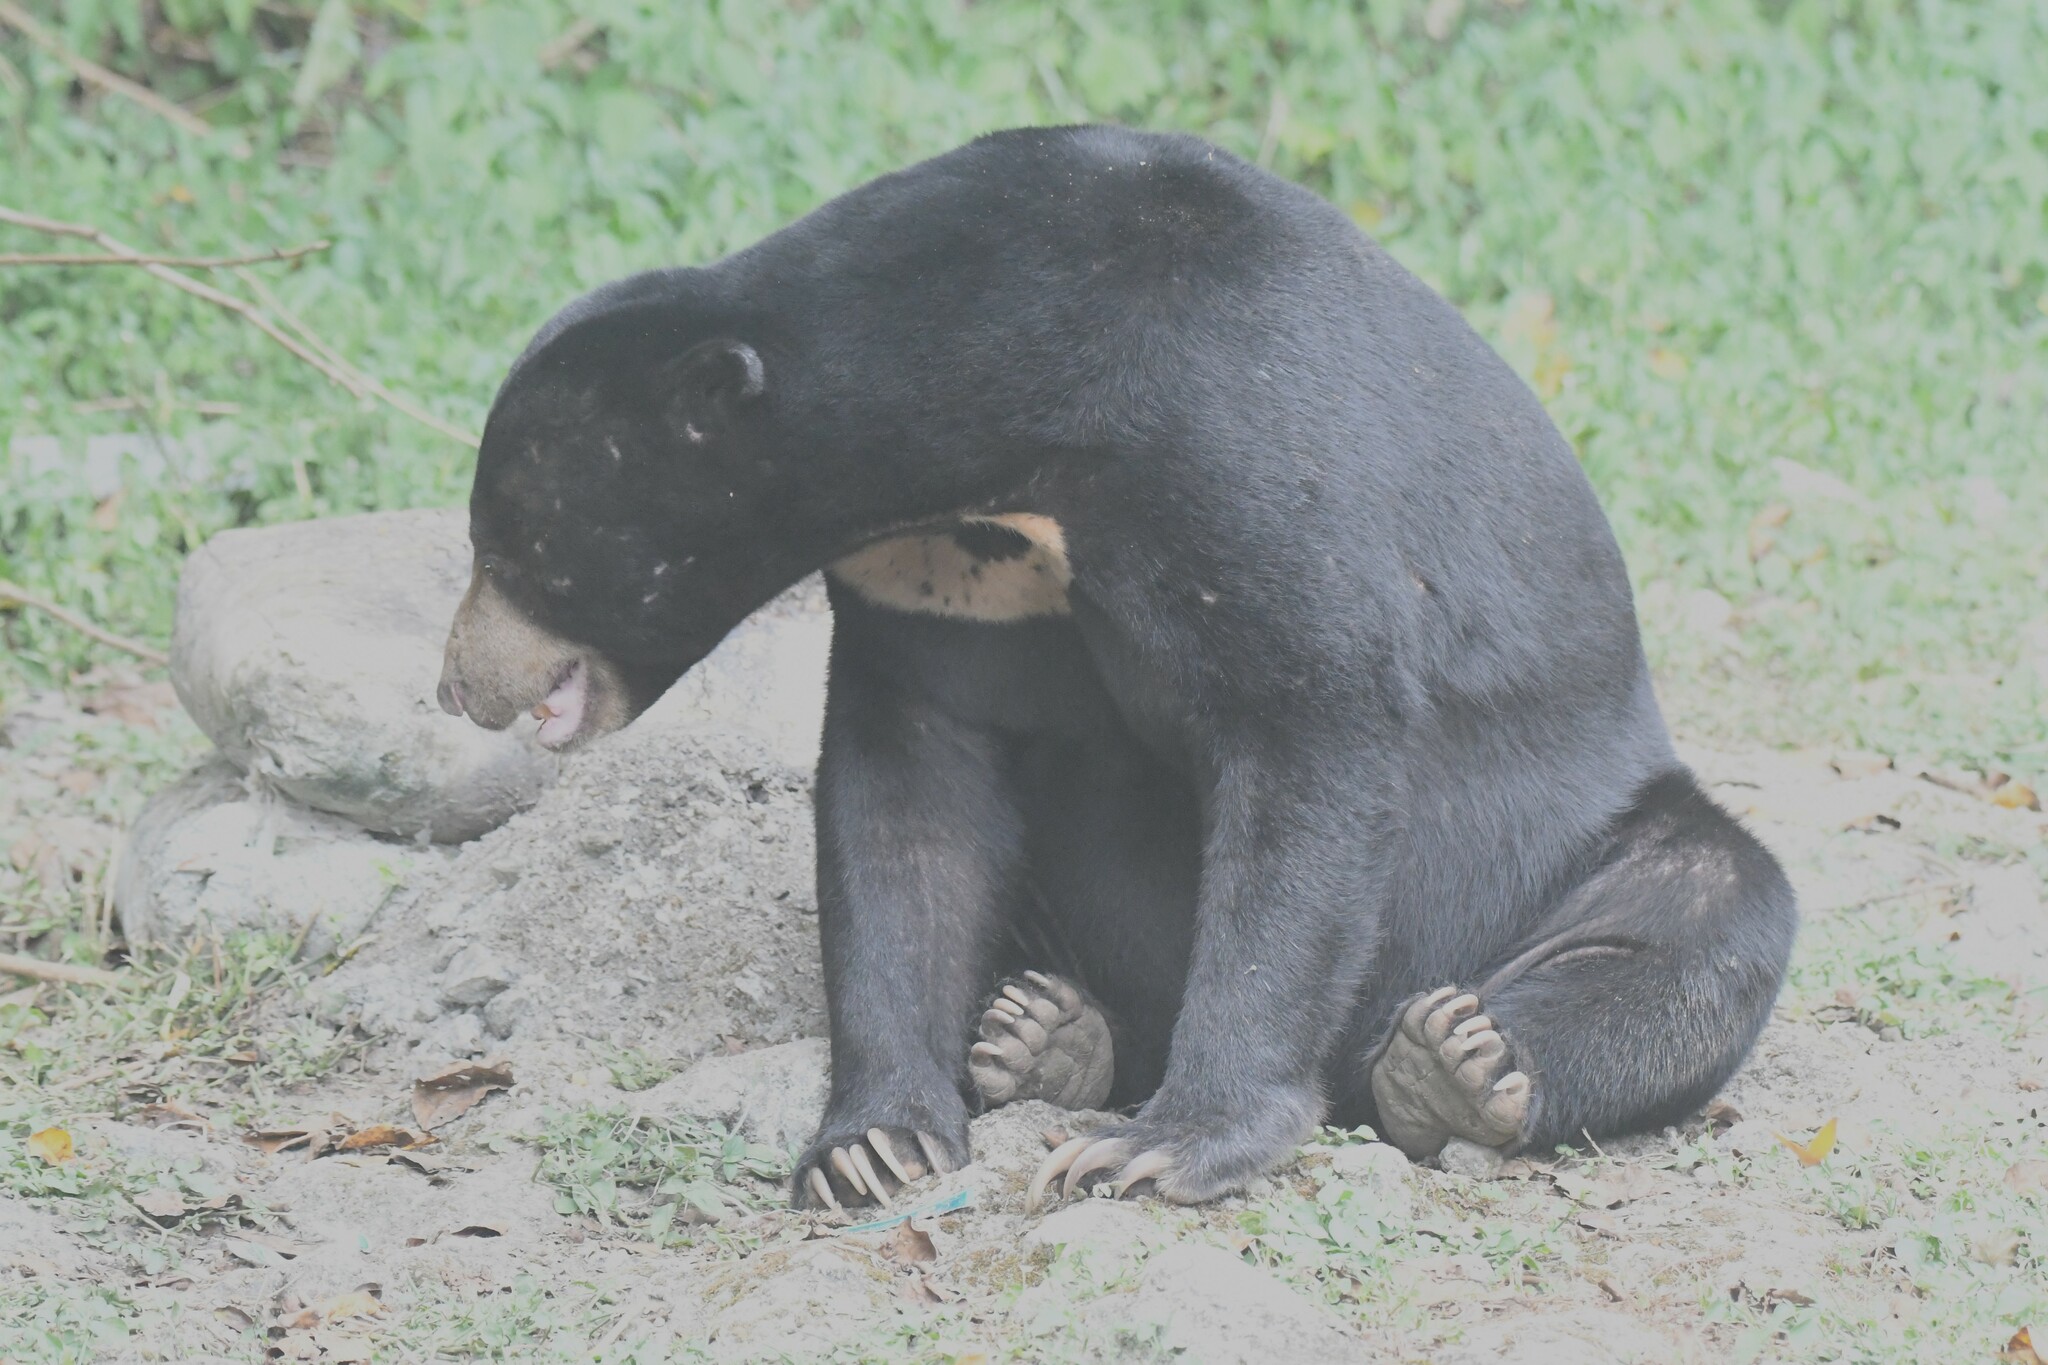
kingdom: Animalia
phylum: Chordata
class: Mammalia
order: Carnivora
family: Ursidae
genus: Helarctos
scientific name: Helarctos malayanus
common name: Sun bear
